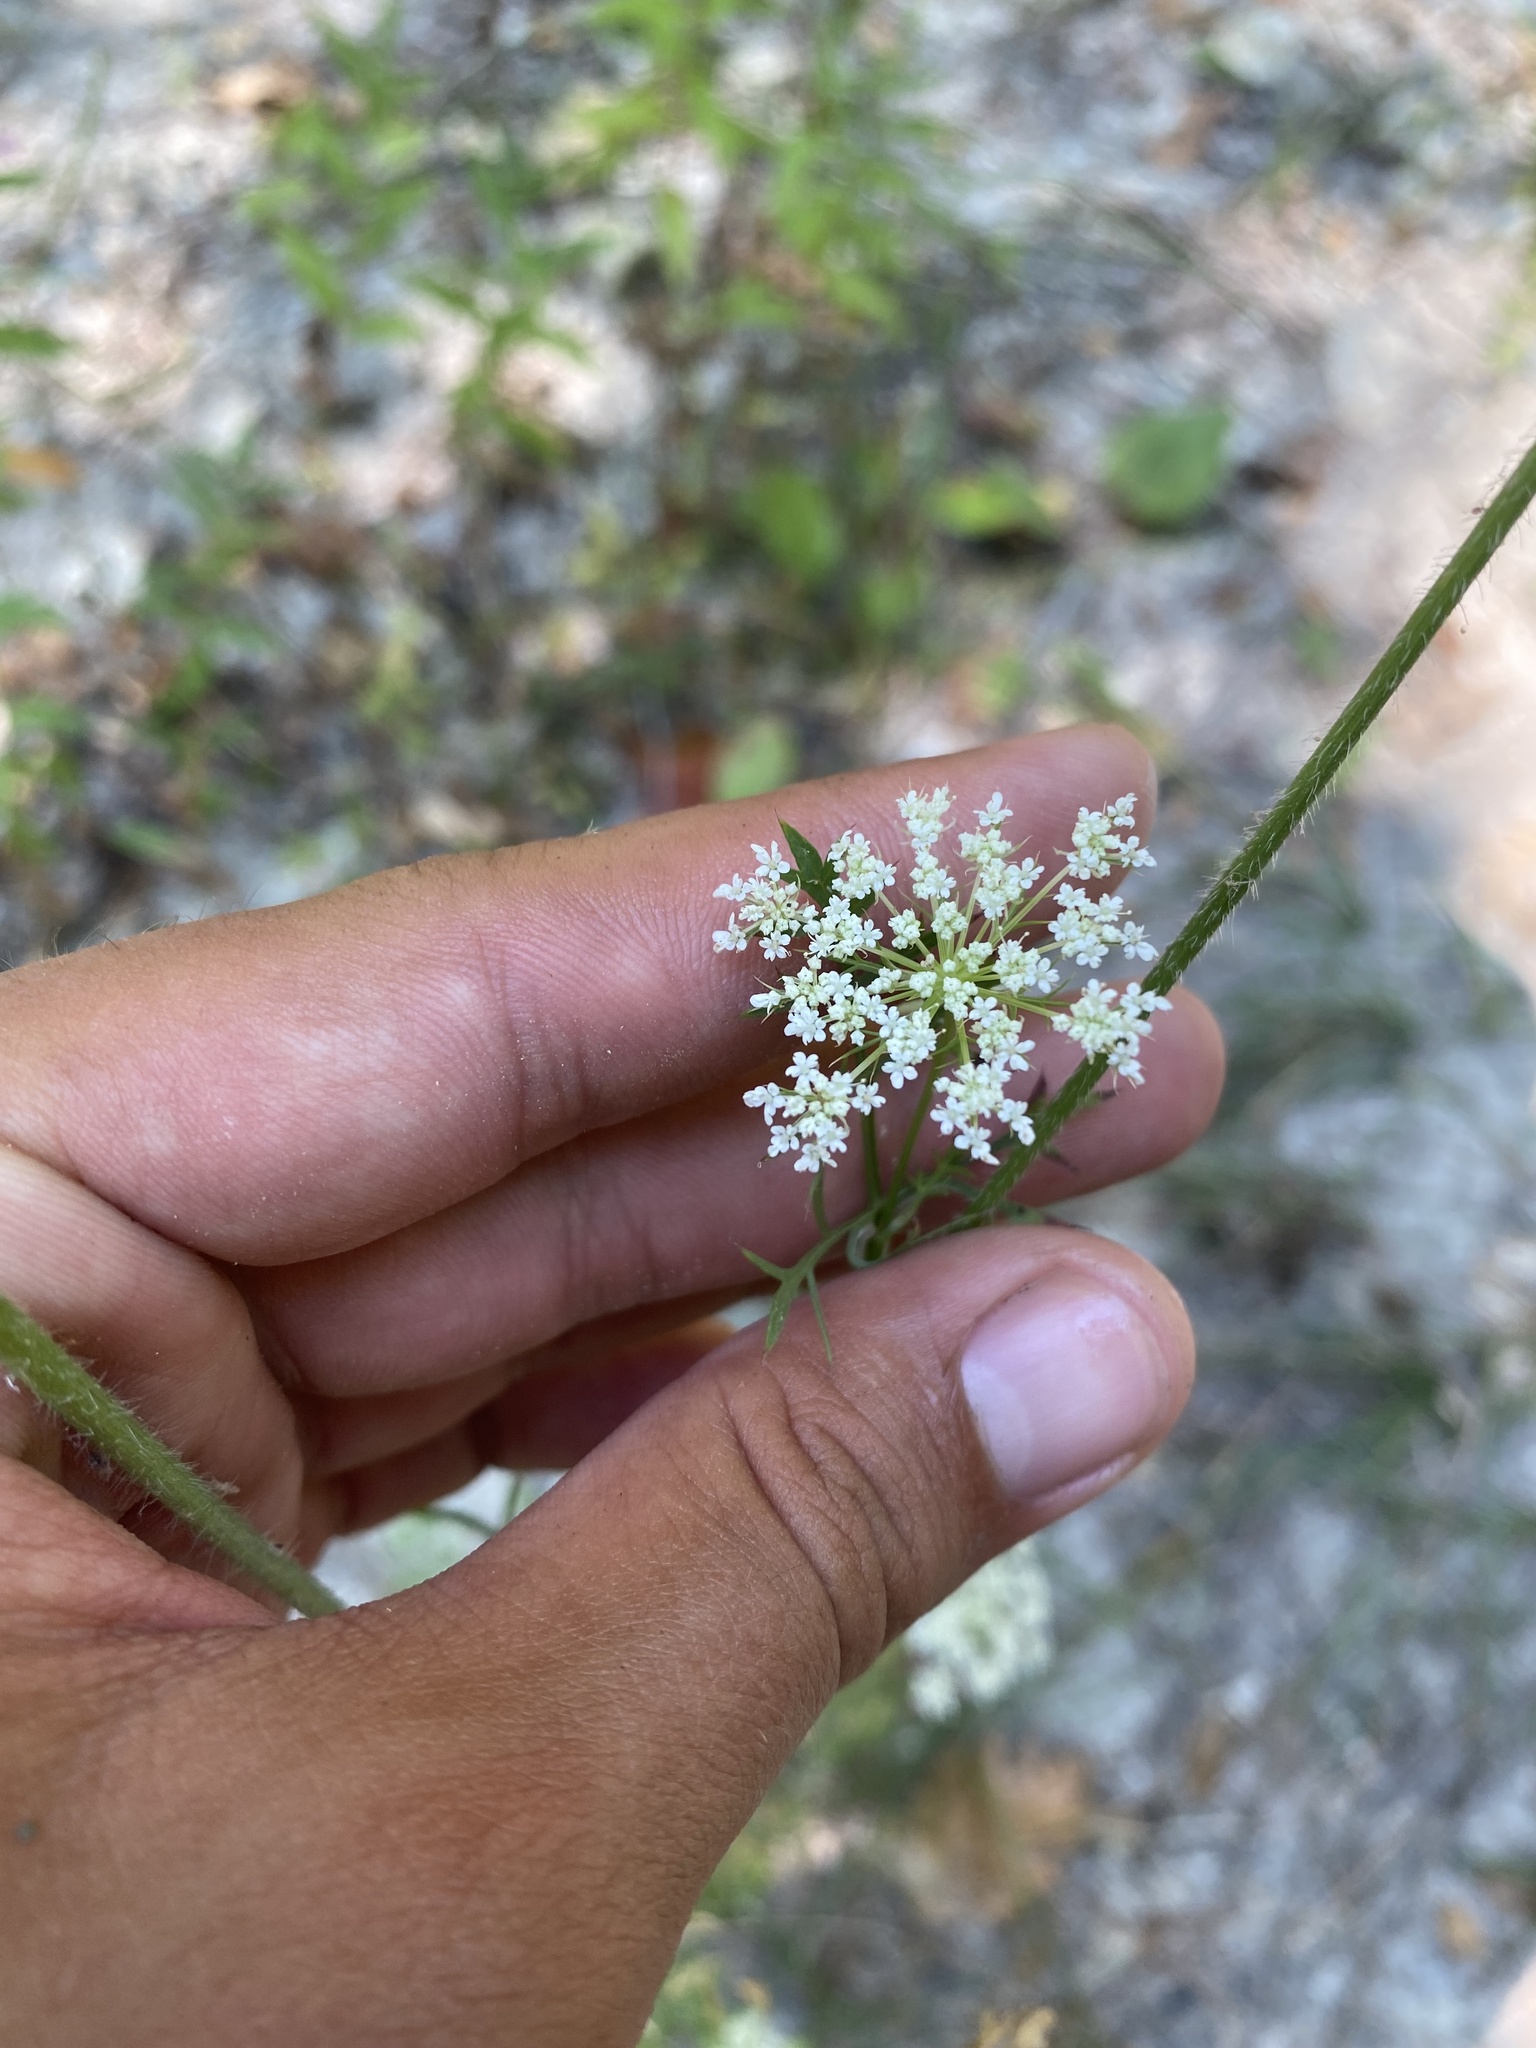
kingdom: Plantae
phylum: Tracheophyta
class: Magnoliopsida
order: Apiales
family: Apiaceae
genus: Daucus
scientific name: Daucus carota
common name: Wild carrot
